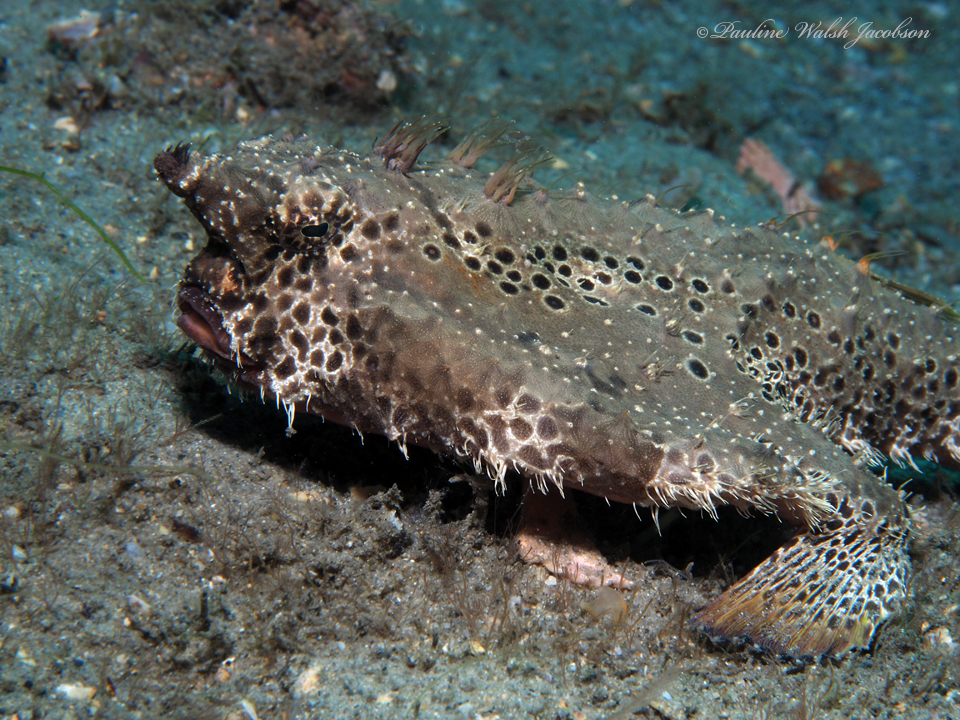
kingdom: Animalia
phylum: Chordata
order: Lophiiformes
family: Ogcocephalidae
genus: Ogcocephalus
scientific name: Ogcocephalus cubifrons
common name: Polka-dot batfish
